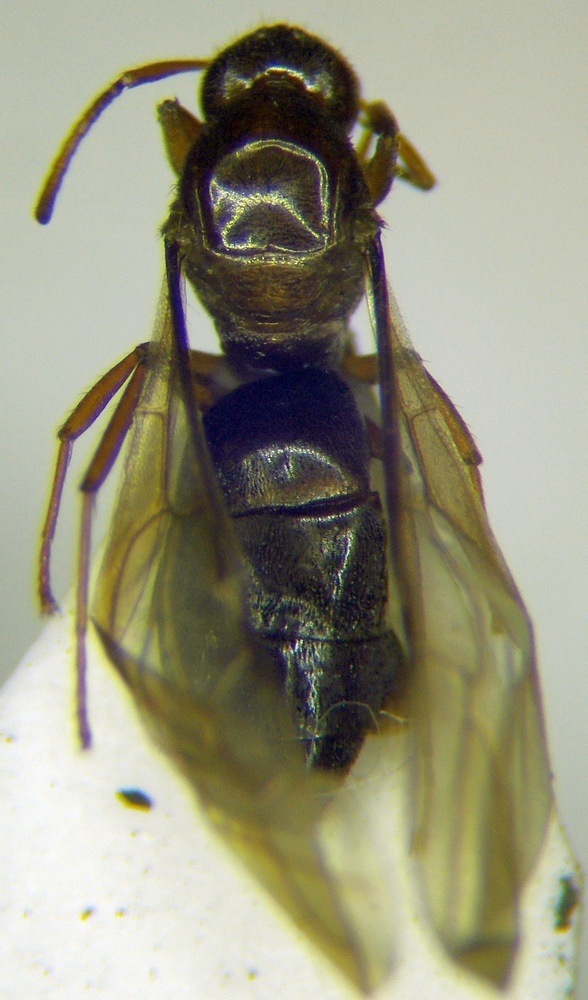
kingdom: Animalia
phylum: Arthropoda
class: Insecta
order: Hymenoptera
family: Formicidae
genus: Paratrechina
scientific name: Paratrechina jaegerskioeldi
